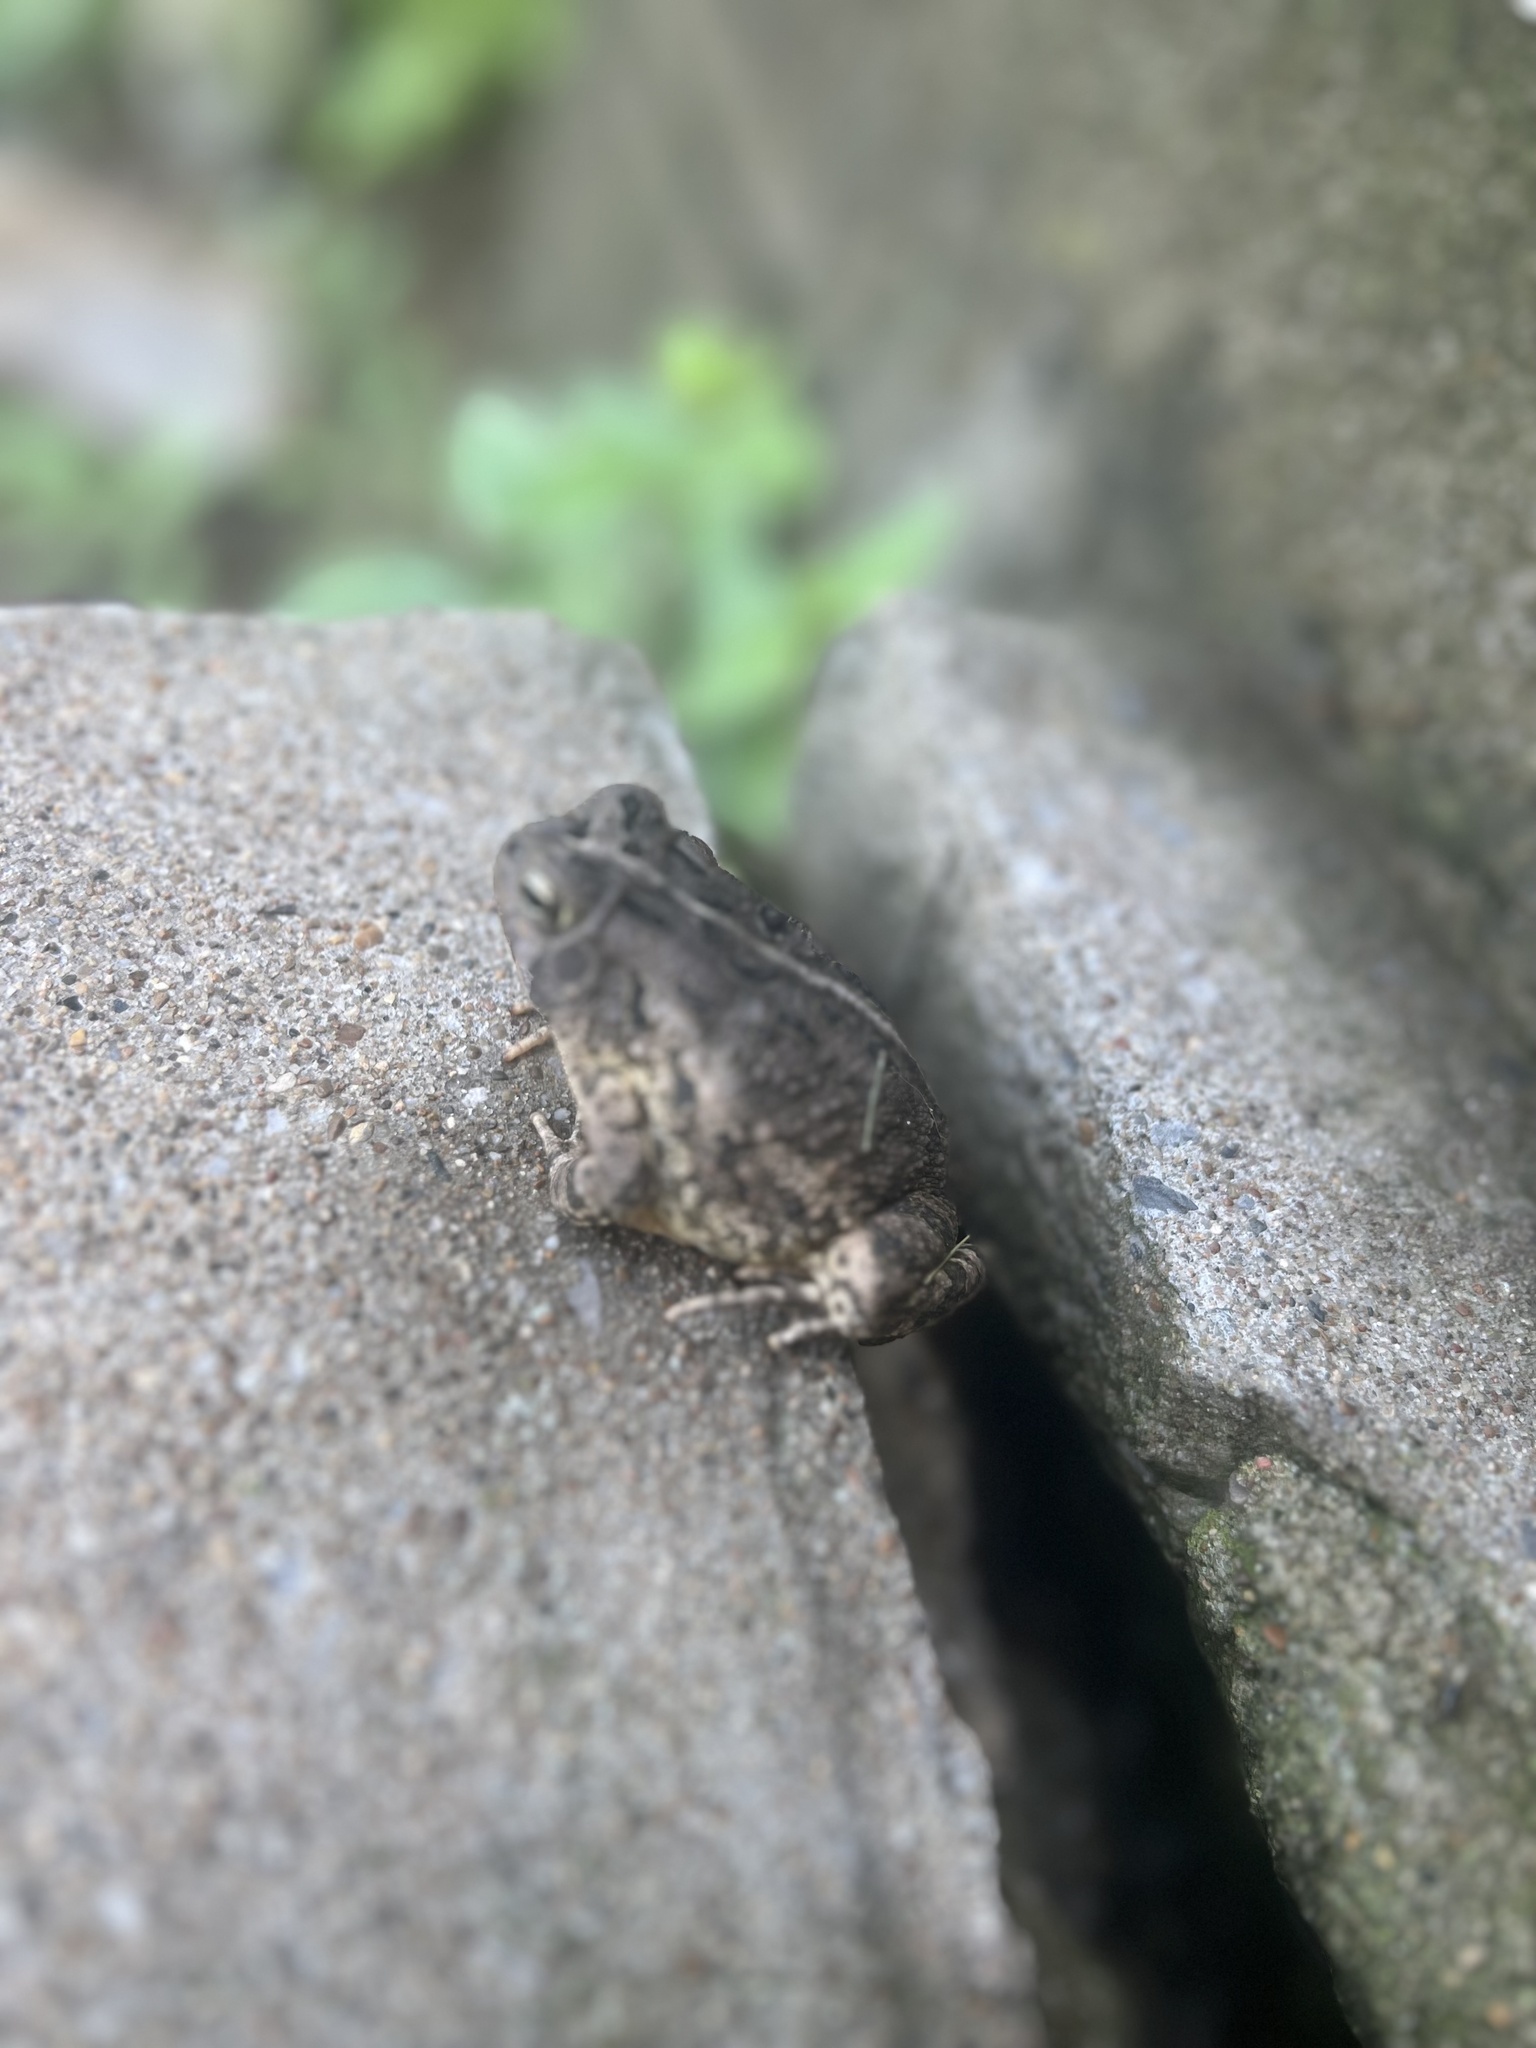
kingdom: Animalia
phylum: Chordata
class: Amphibia
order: Anura
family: Bufonidae
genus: Anaxyrus
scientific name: Anaxyrus fowleri
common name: Fowler's toad
